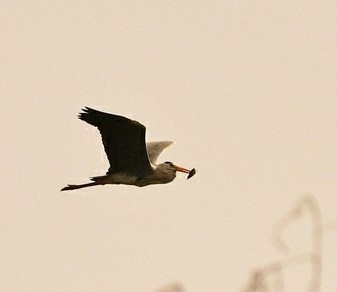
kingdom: Animalia
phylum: Chordata
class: Aves
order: Pelecaniformes
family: Ardeidae
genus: Ardea
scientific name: Ardea cinerea
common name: Grey heron
